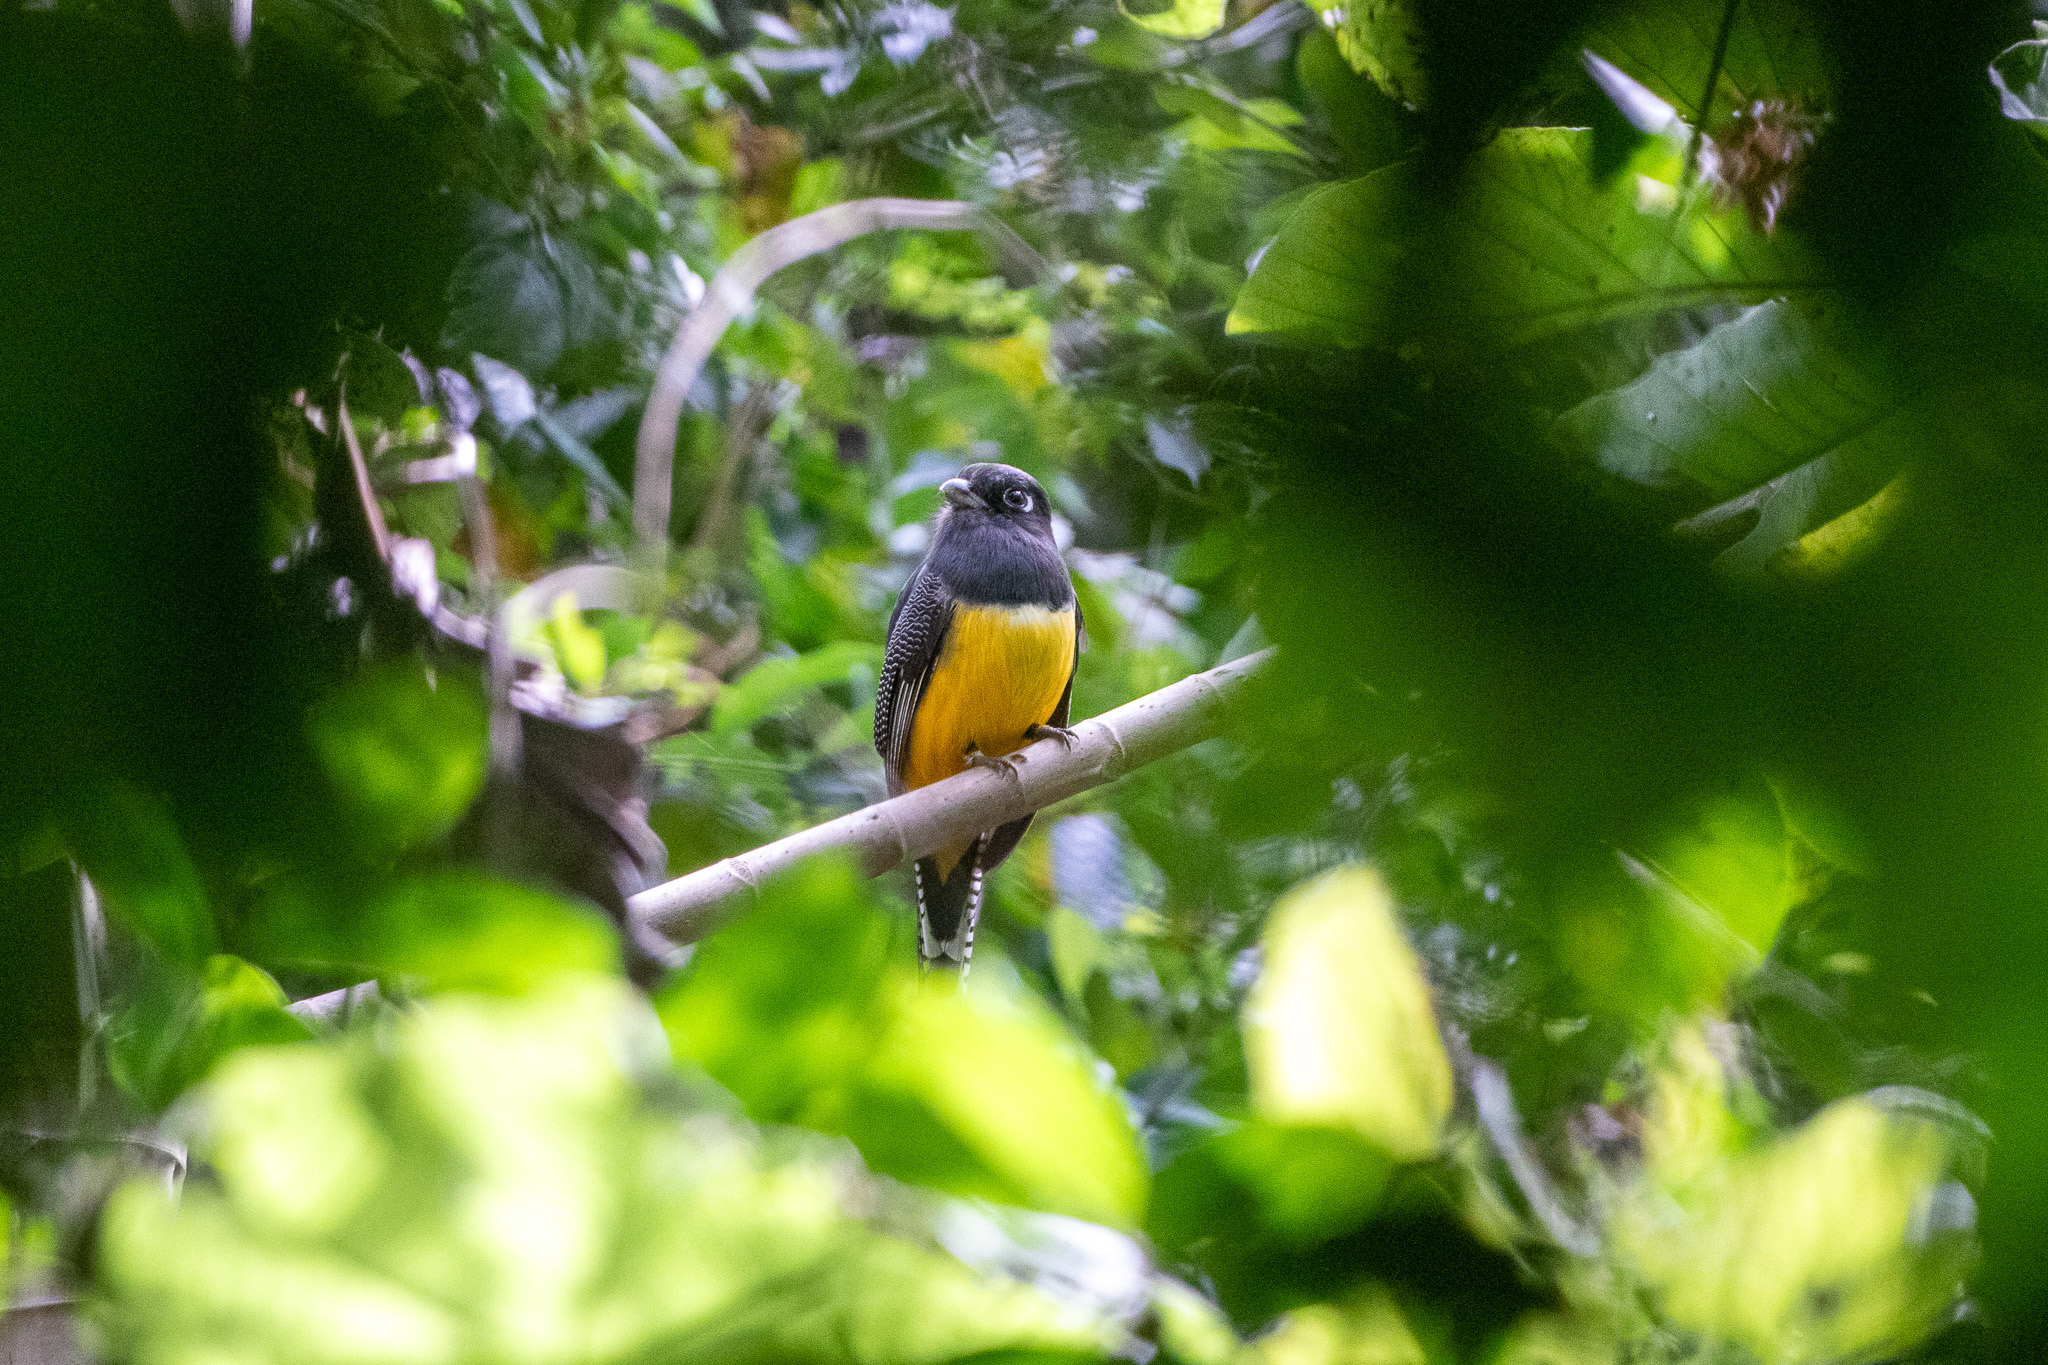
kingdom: Animalia
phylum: Chordata
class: Aves
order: Trogoniformes
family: Trogonidae
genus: Trogon
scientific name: Trogon caligatus
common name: Gartered trogon
